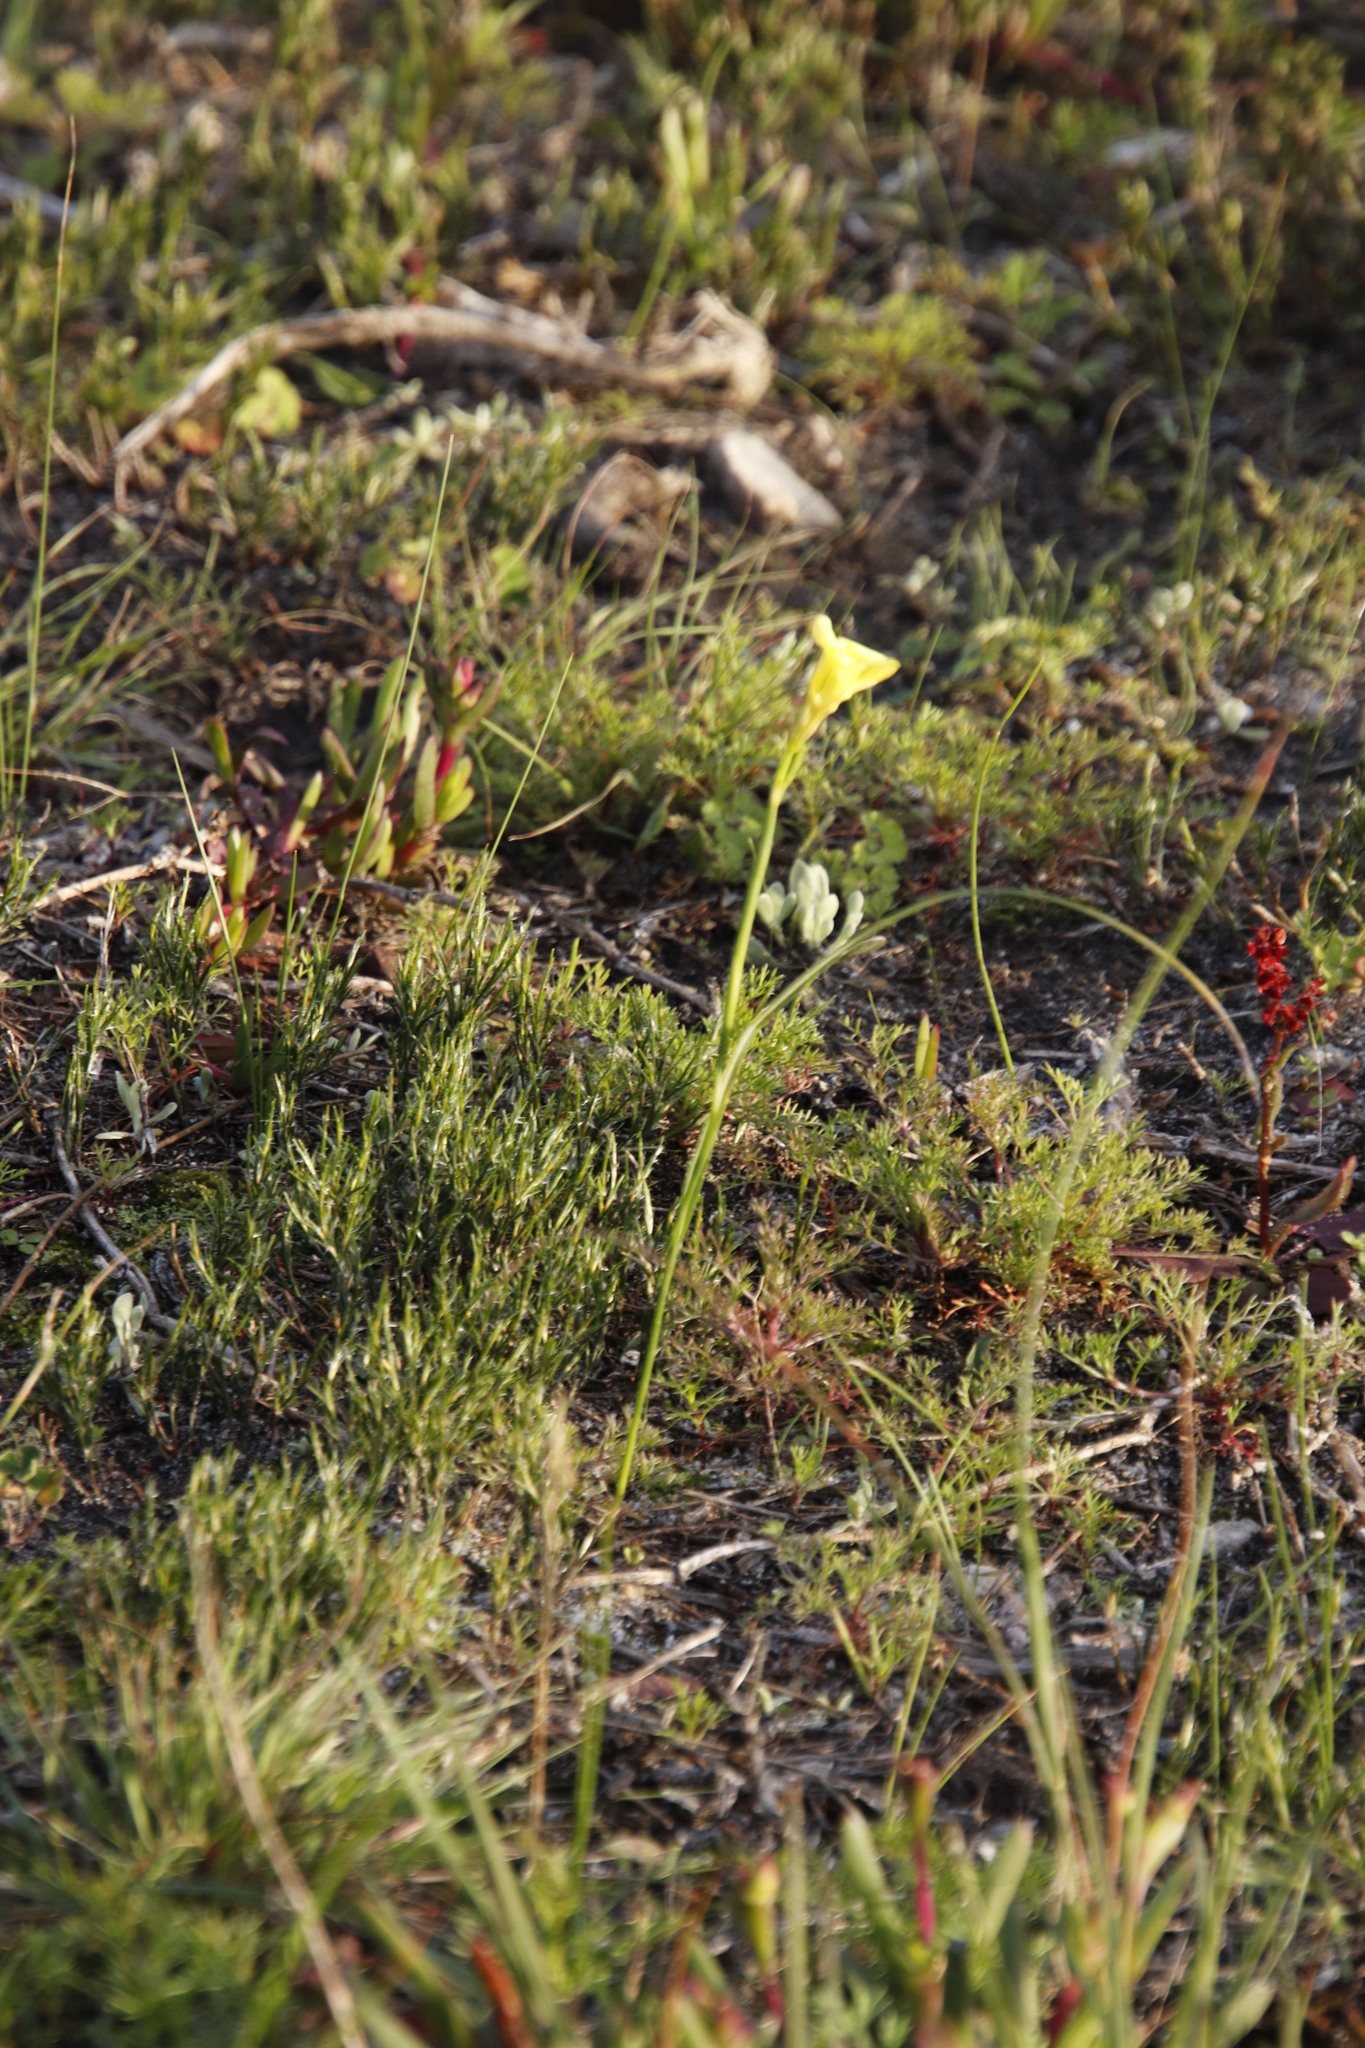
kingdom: Plantae
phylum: Tracheophyta
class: Liliopsida
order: Asparagales
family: Iridaceae
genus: Moraea
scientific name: Moraea ochroleuca
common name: Red tulp
